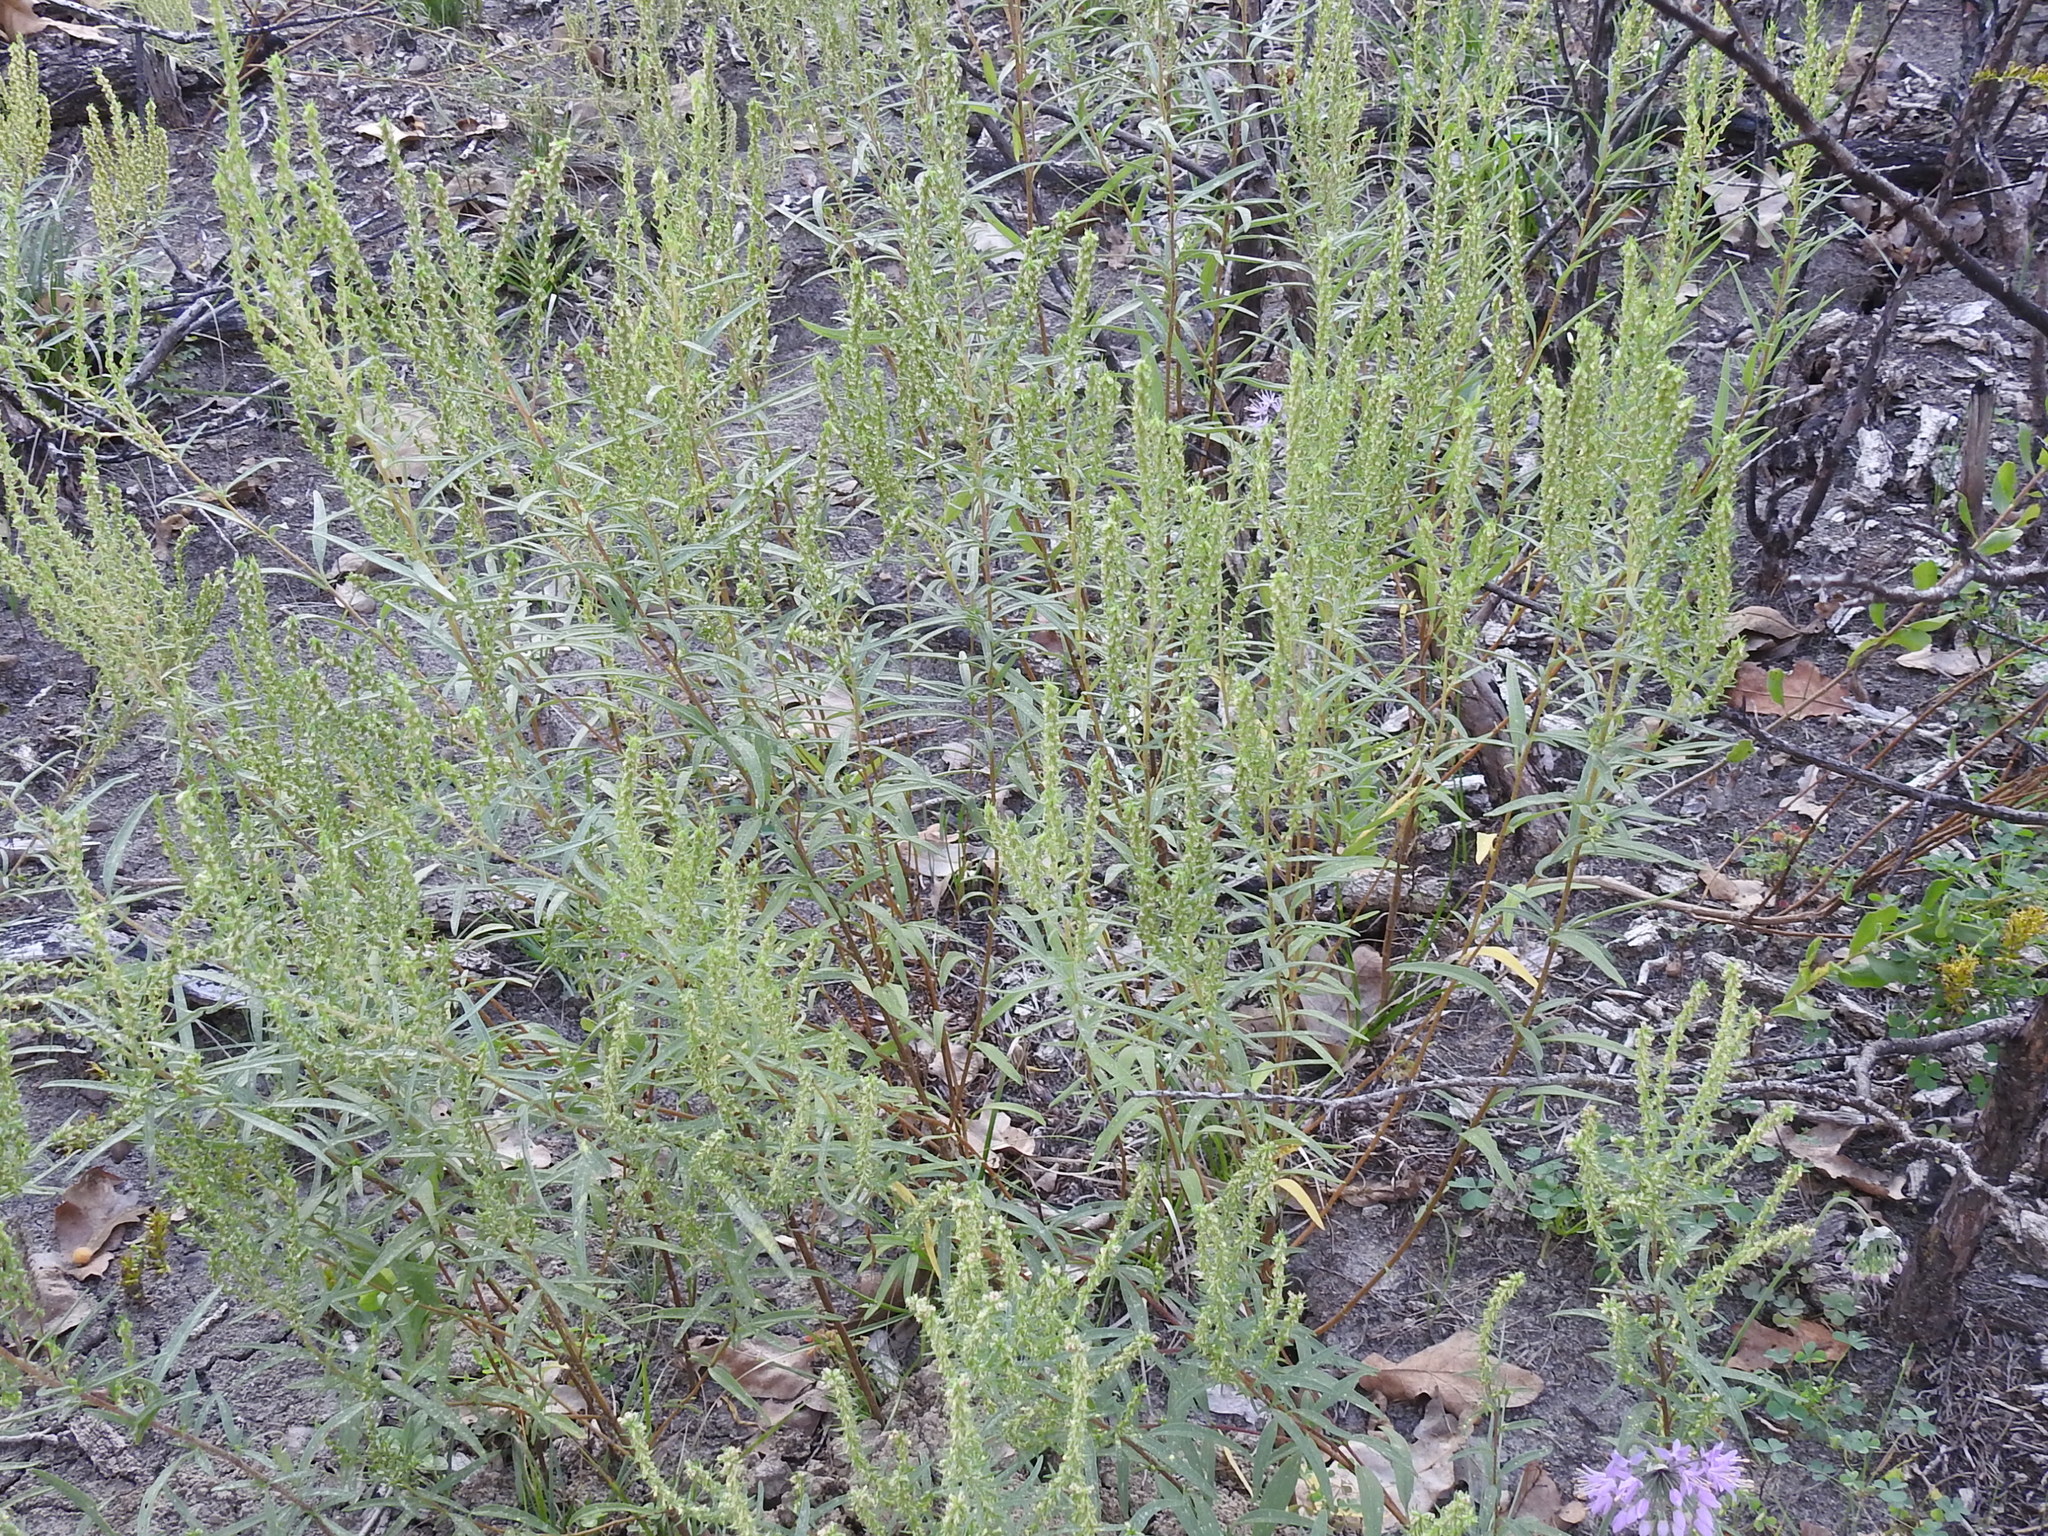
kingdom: Plantae
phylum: Tracheophyta
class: Magnoliopsida
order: Asterales
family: Asteraceae
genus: Iva
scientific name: Iva asperifolia
